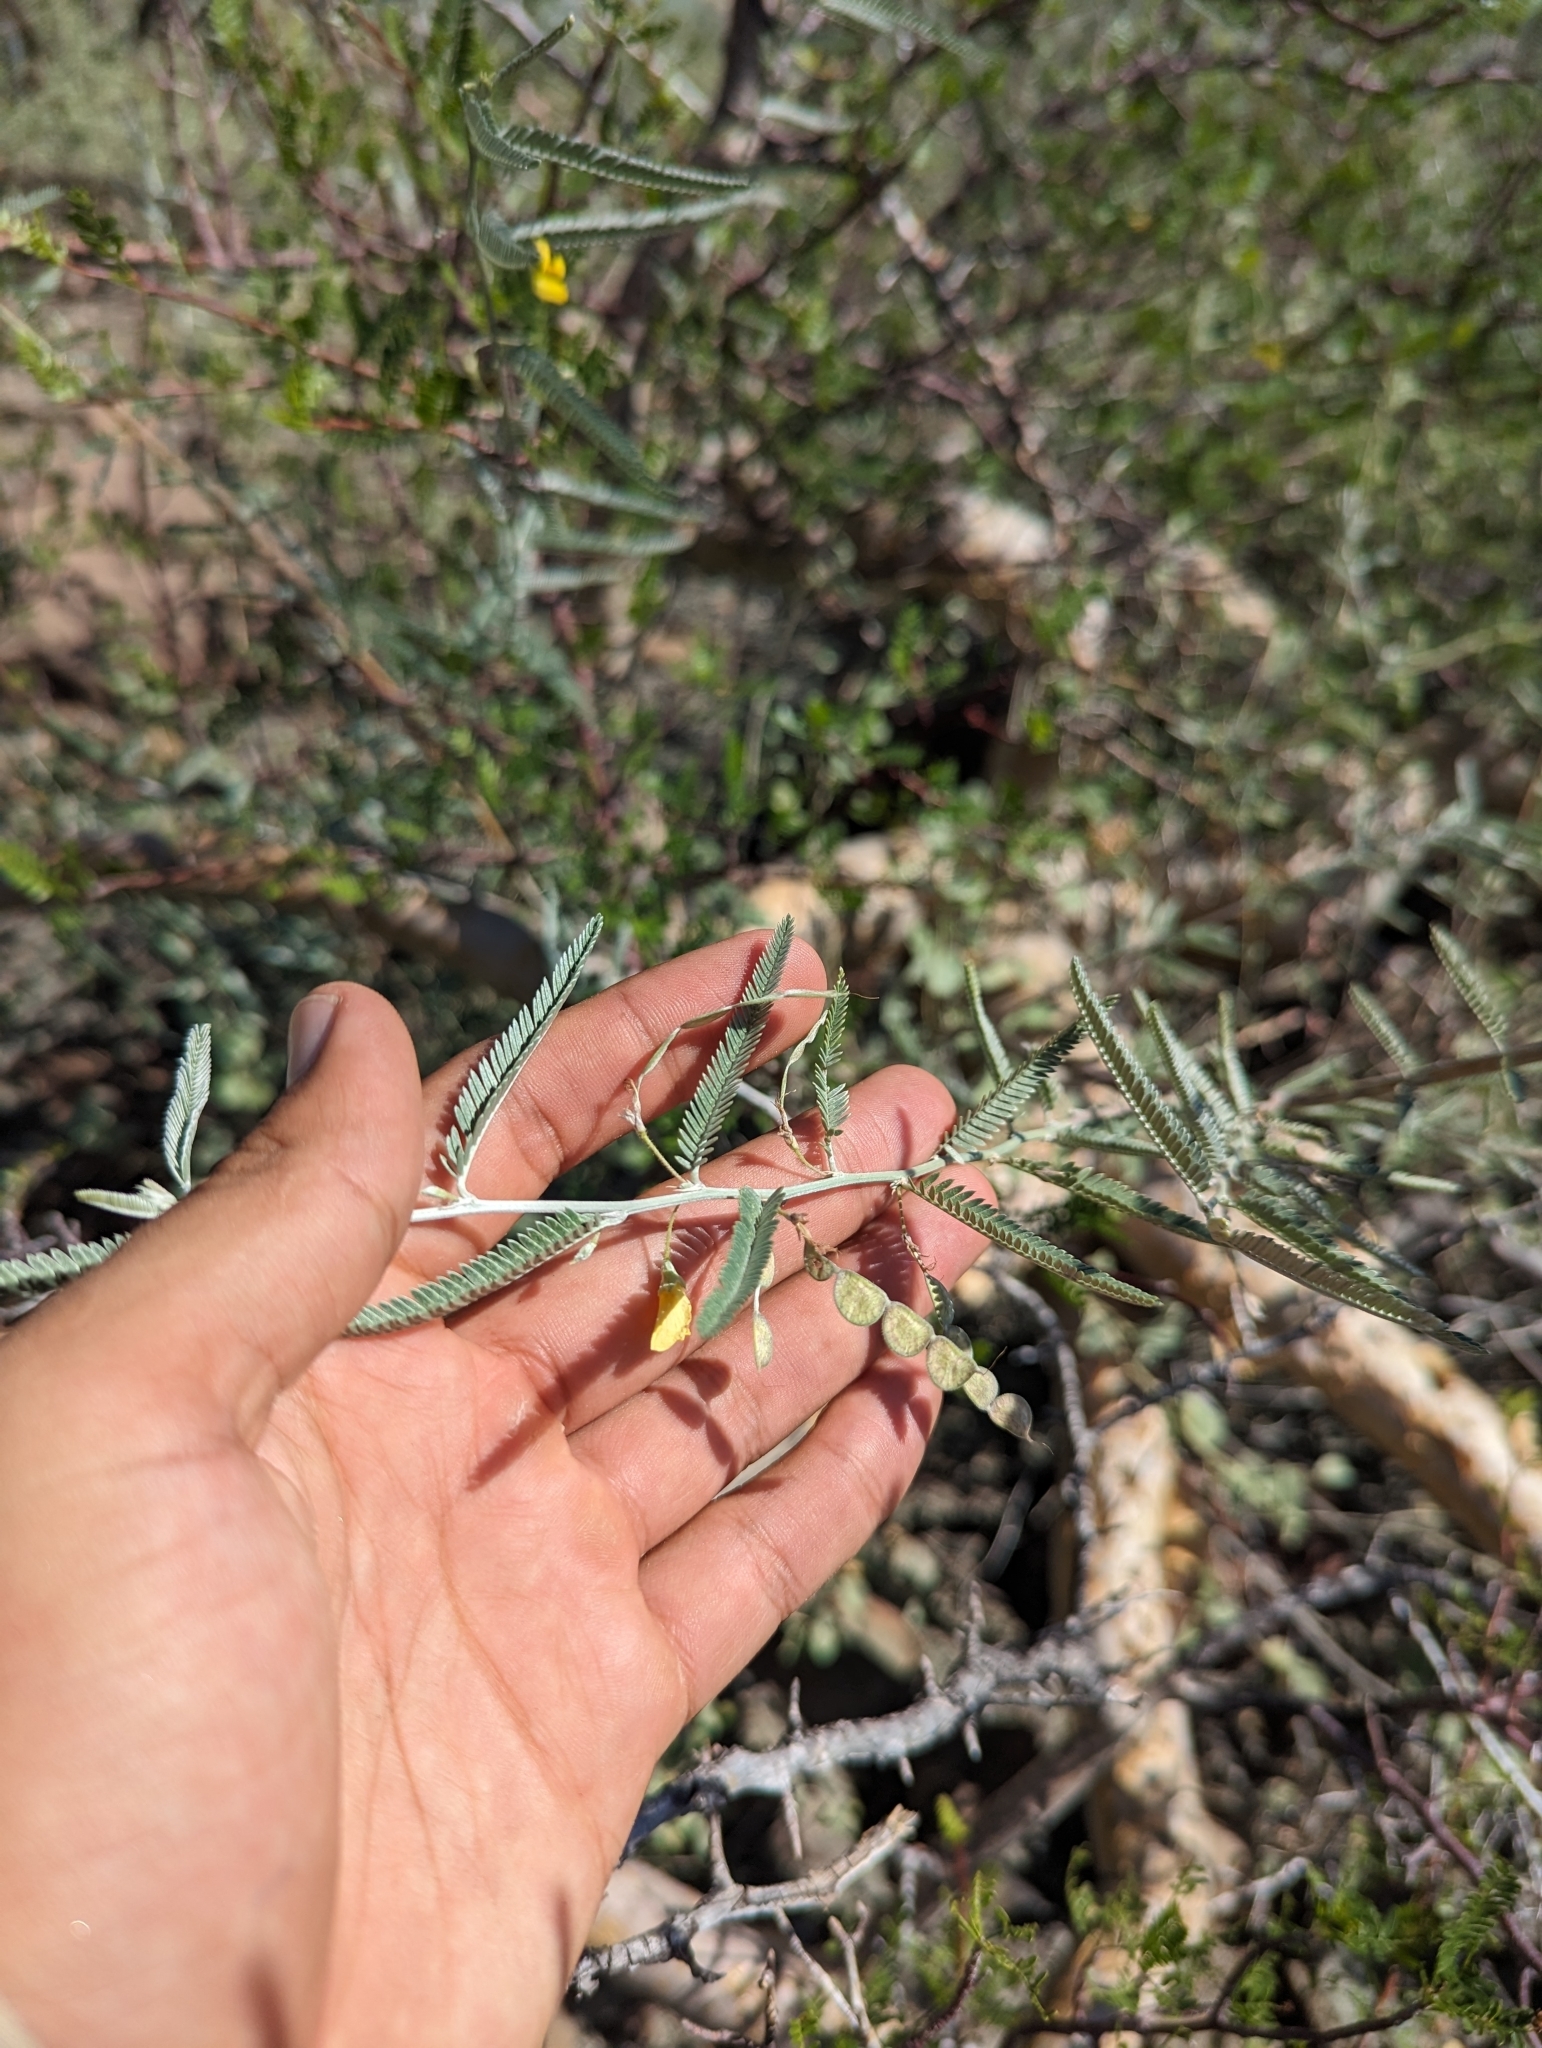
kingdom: Plantae
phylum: Tracheophyta
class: Magnoliopsida
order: Fabales
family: Fabaceae
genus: Ctenodon
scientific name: Ctenodon niveus
